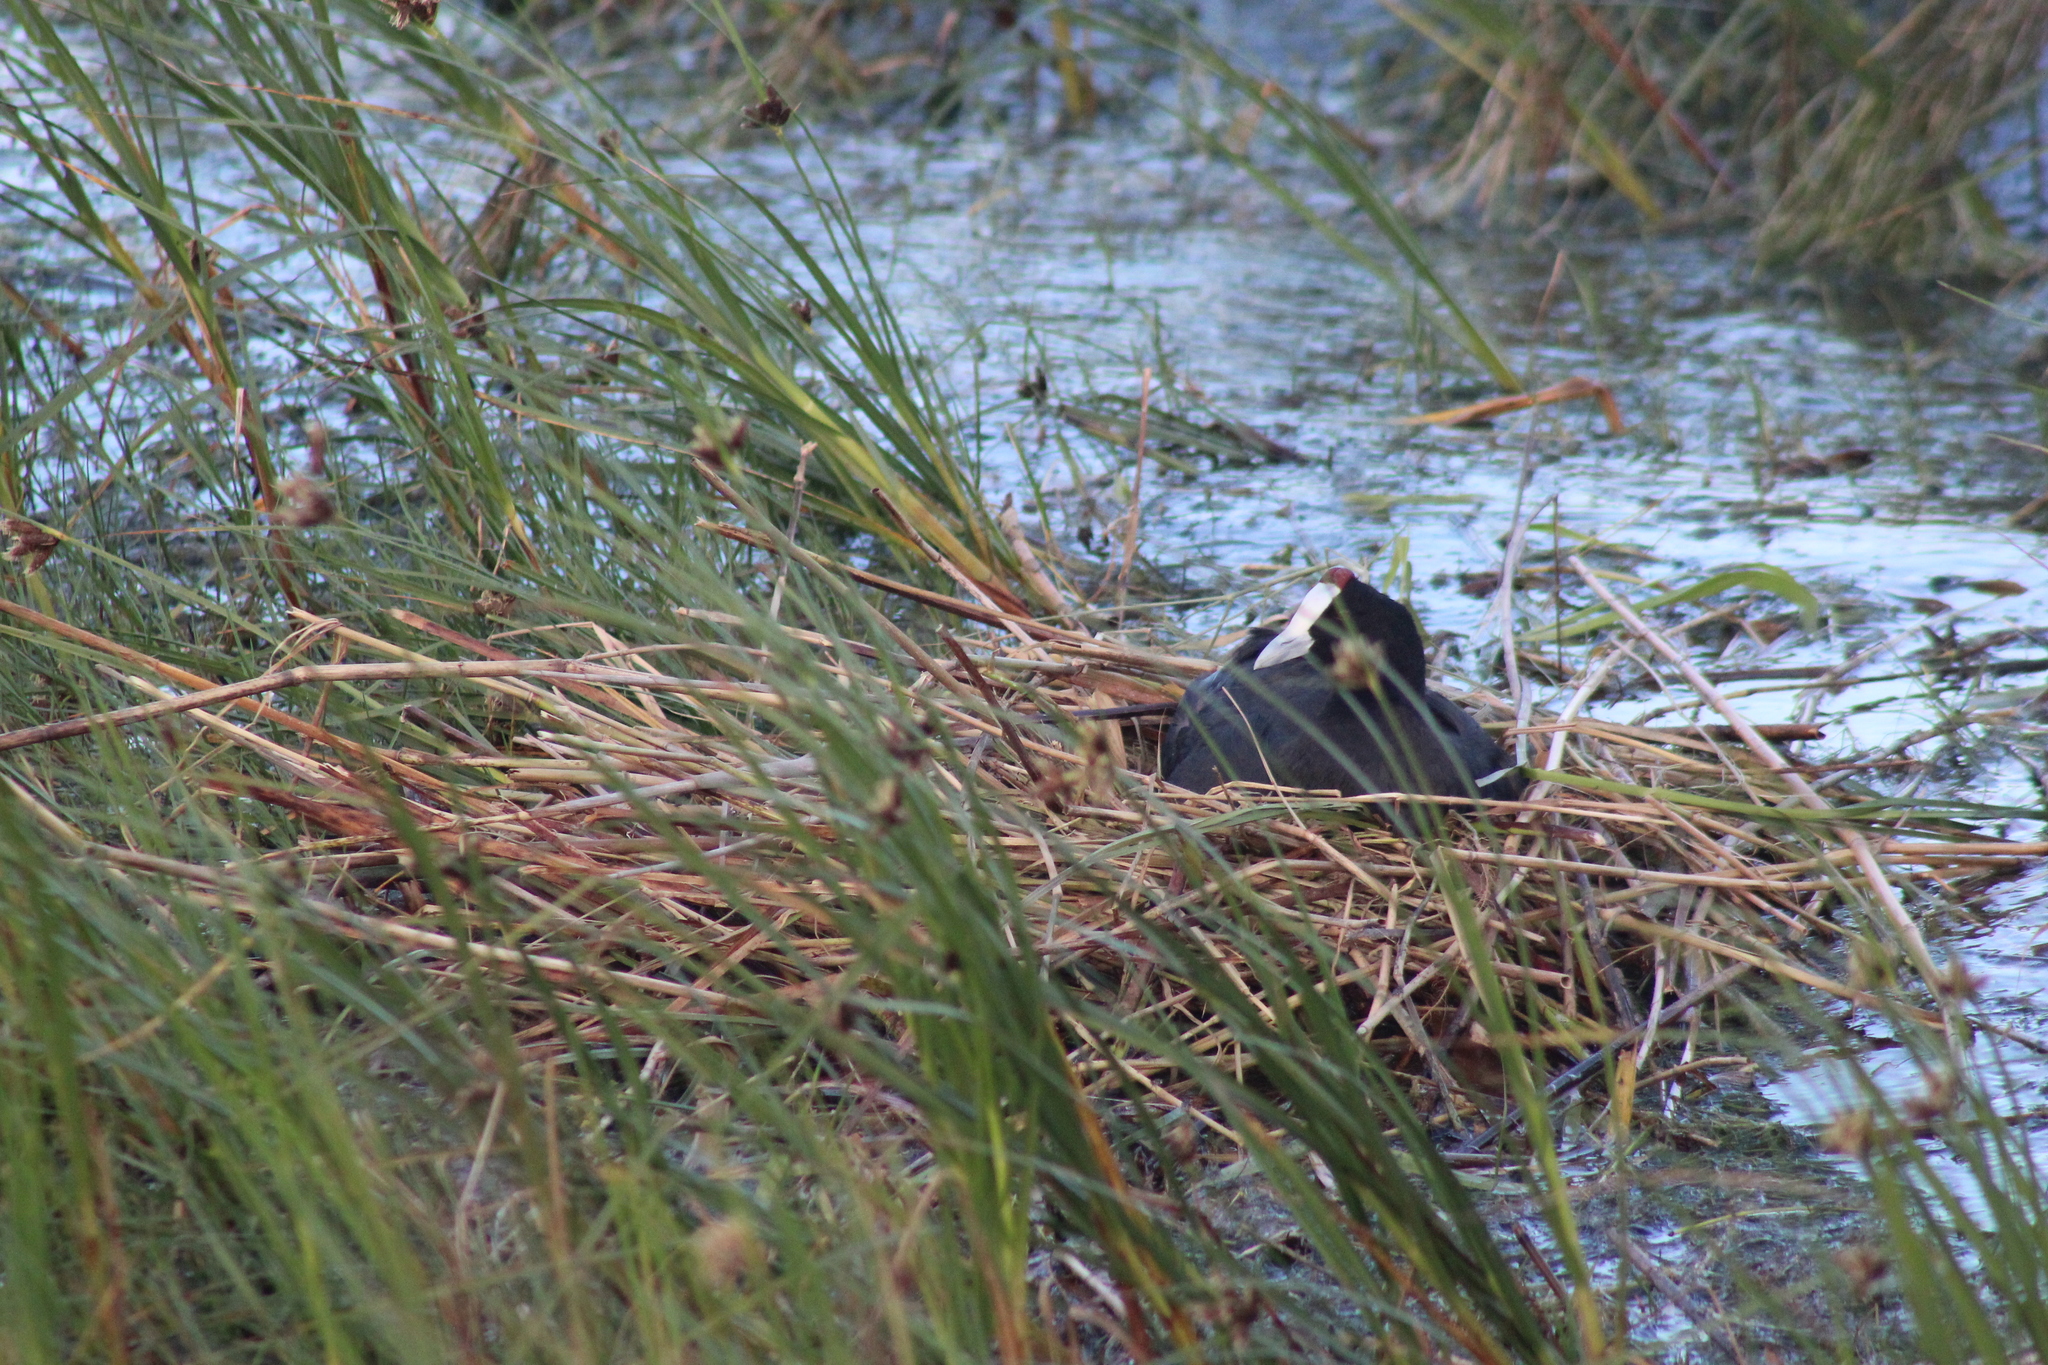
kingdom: Animalia
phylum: Chordata
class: Aves
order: Gruiformes
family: Rallidae
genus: Fulica
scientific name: Fulica cristata
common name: Red-knobbed coot
